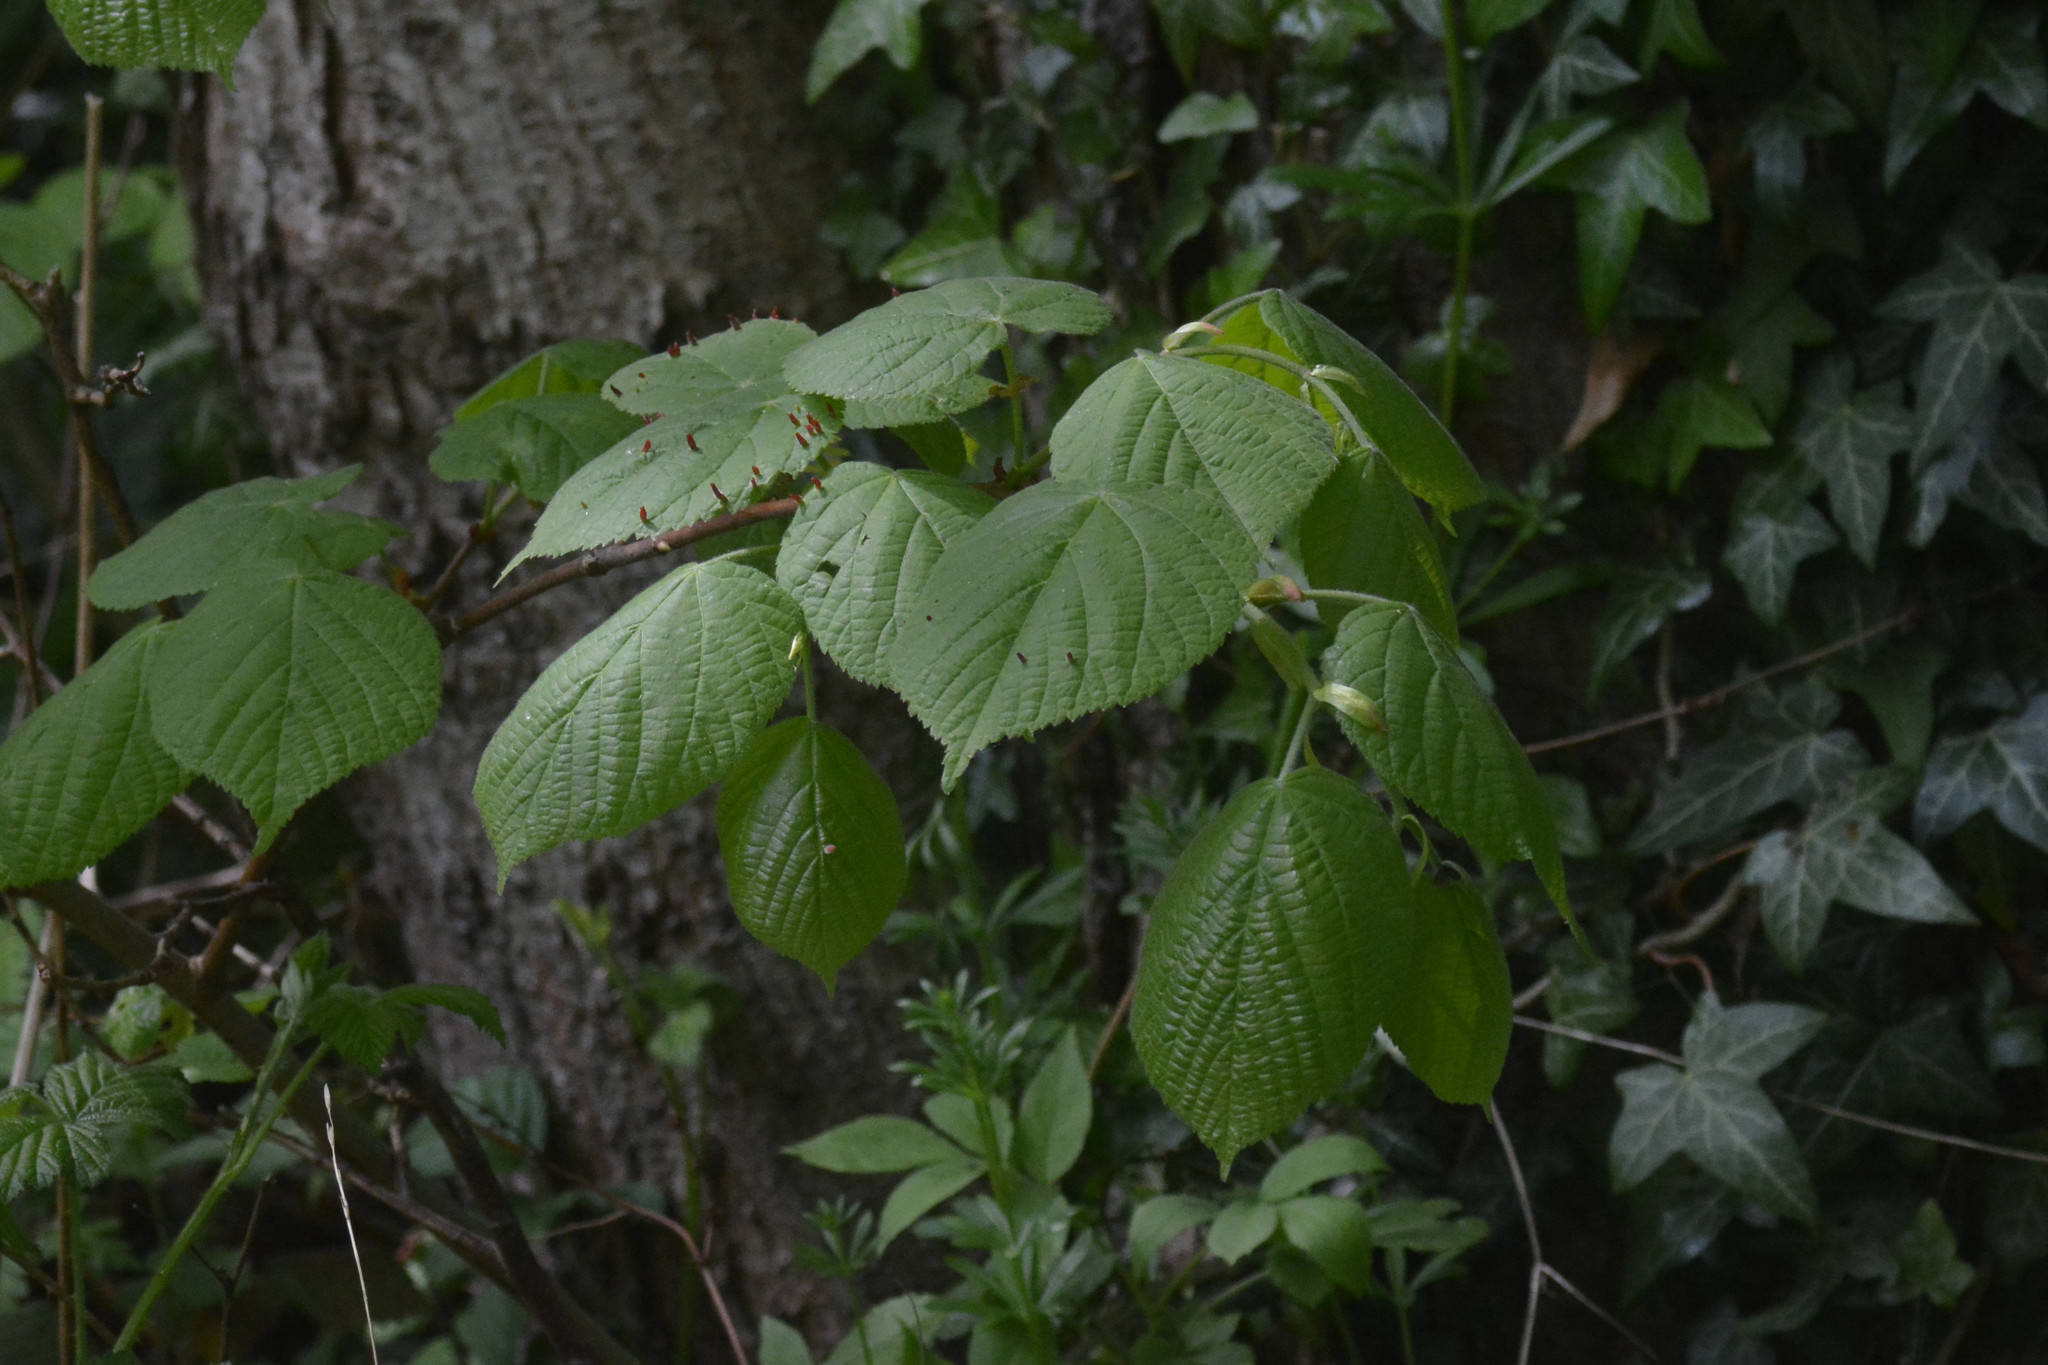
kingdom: Animalia
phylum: Arthropoda
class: Arachnida
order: Trombidiformes
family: Eriophyidae
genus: Eriophyes
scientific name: Eriophyes tiliae
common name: Red nail gall mite
